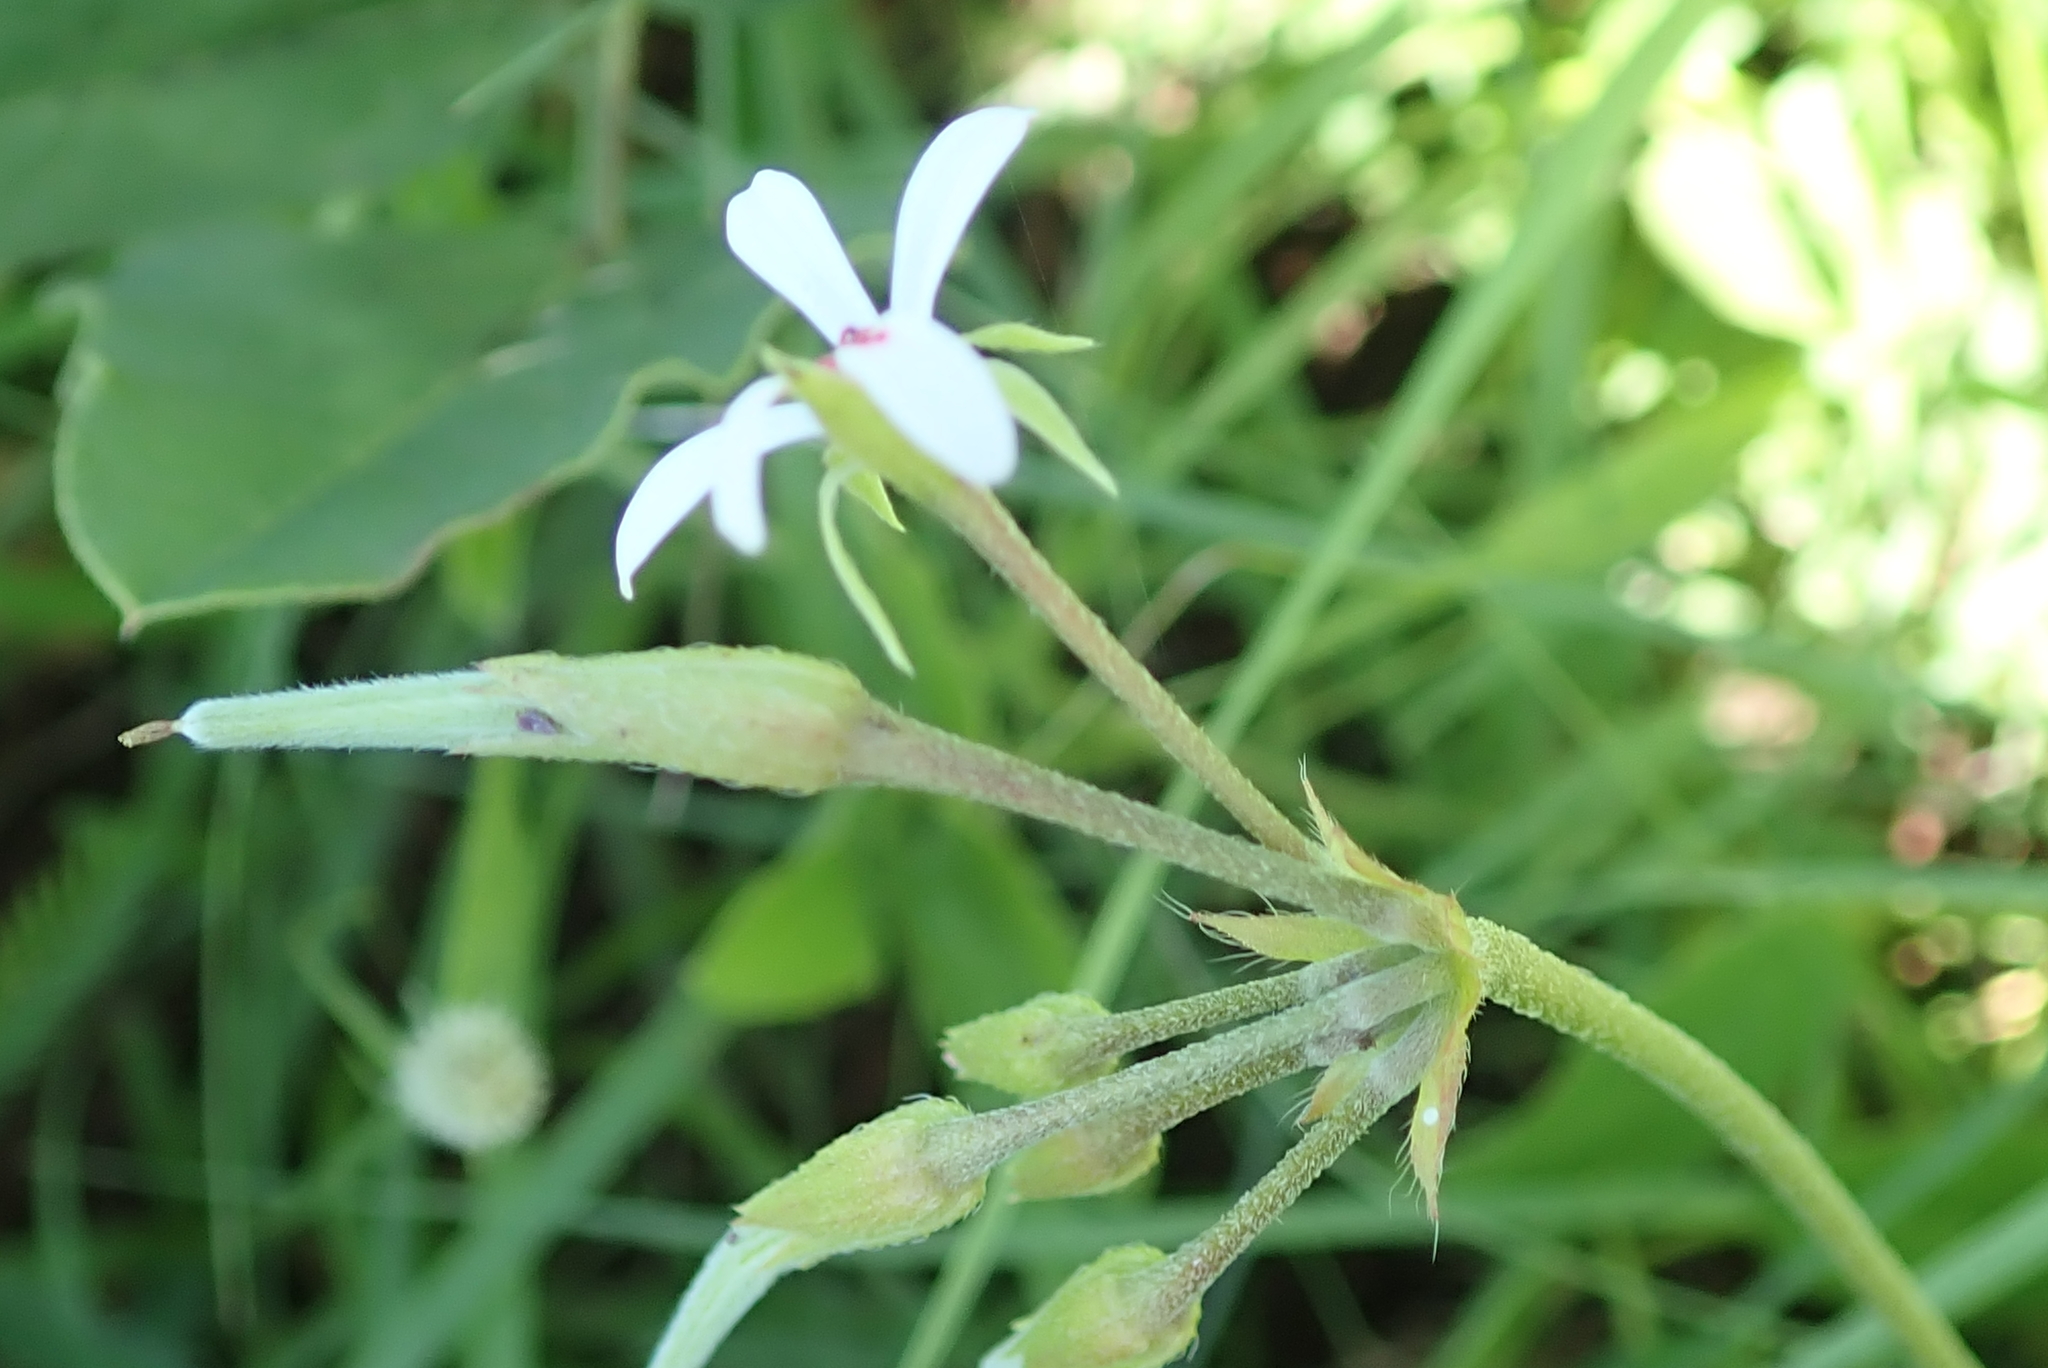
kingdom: Plantae
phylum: Tracheophyta
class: Magnoliopsida
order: Geraniales
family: Geraniaceae
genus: Pelargonium
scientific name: Pelargonium alchemilloides
